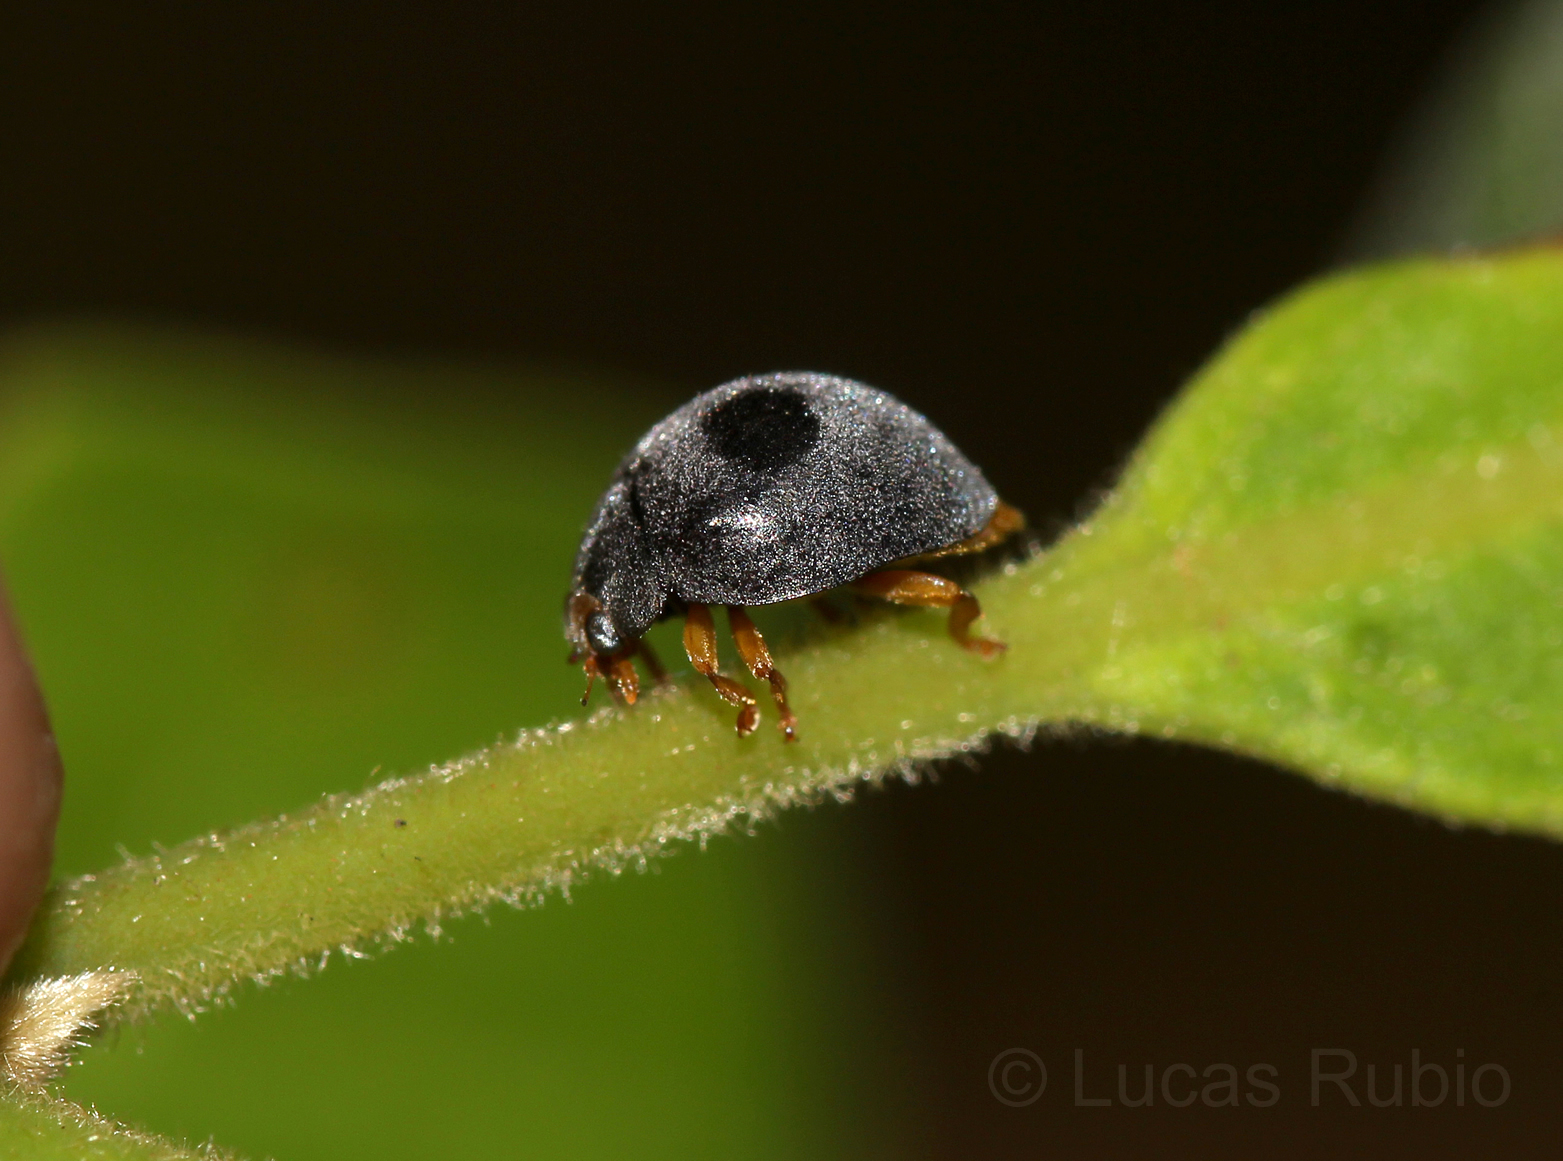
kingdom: Animalia
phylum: Arthropoda
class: Insecta
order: Coleoptera
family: Coccinellidae
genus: Azya
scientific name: Azya luteipes
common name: Ladybird beetle
